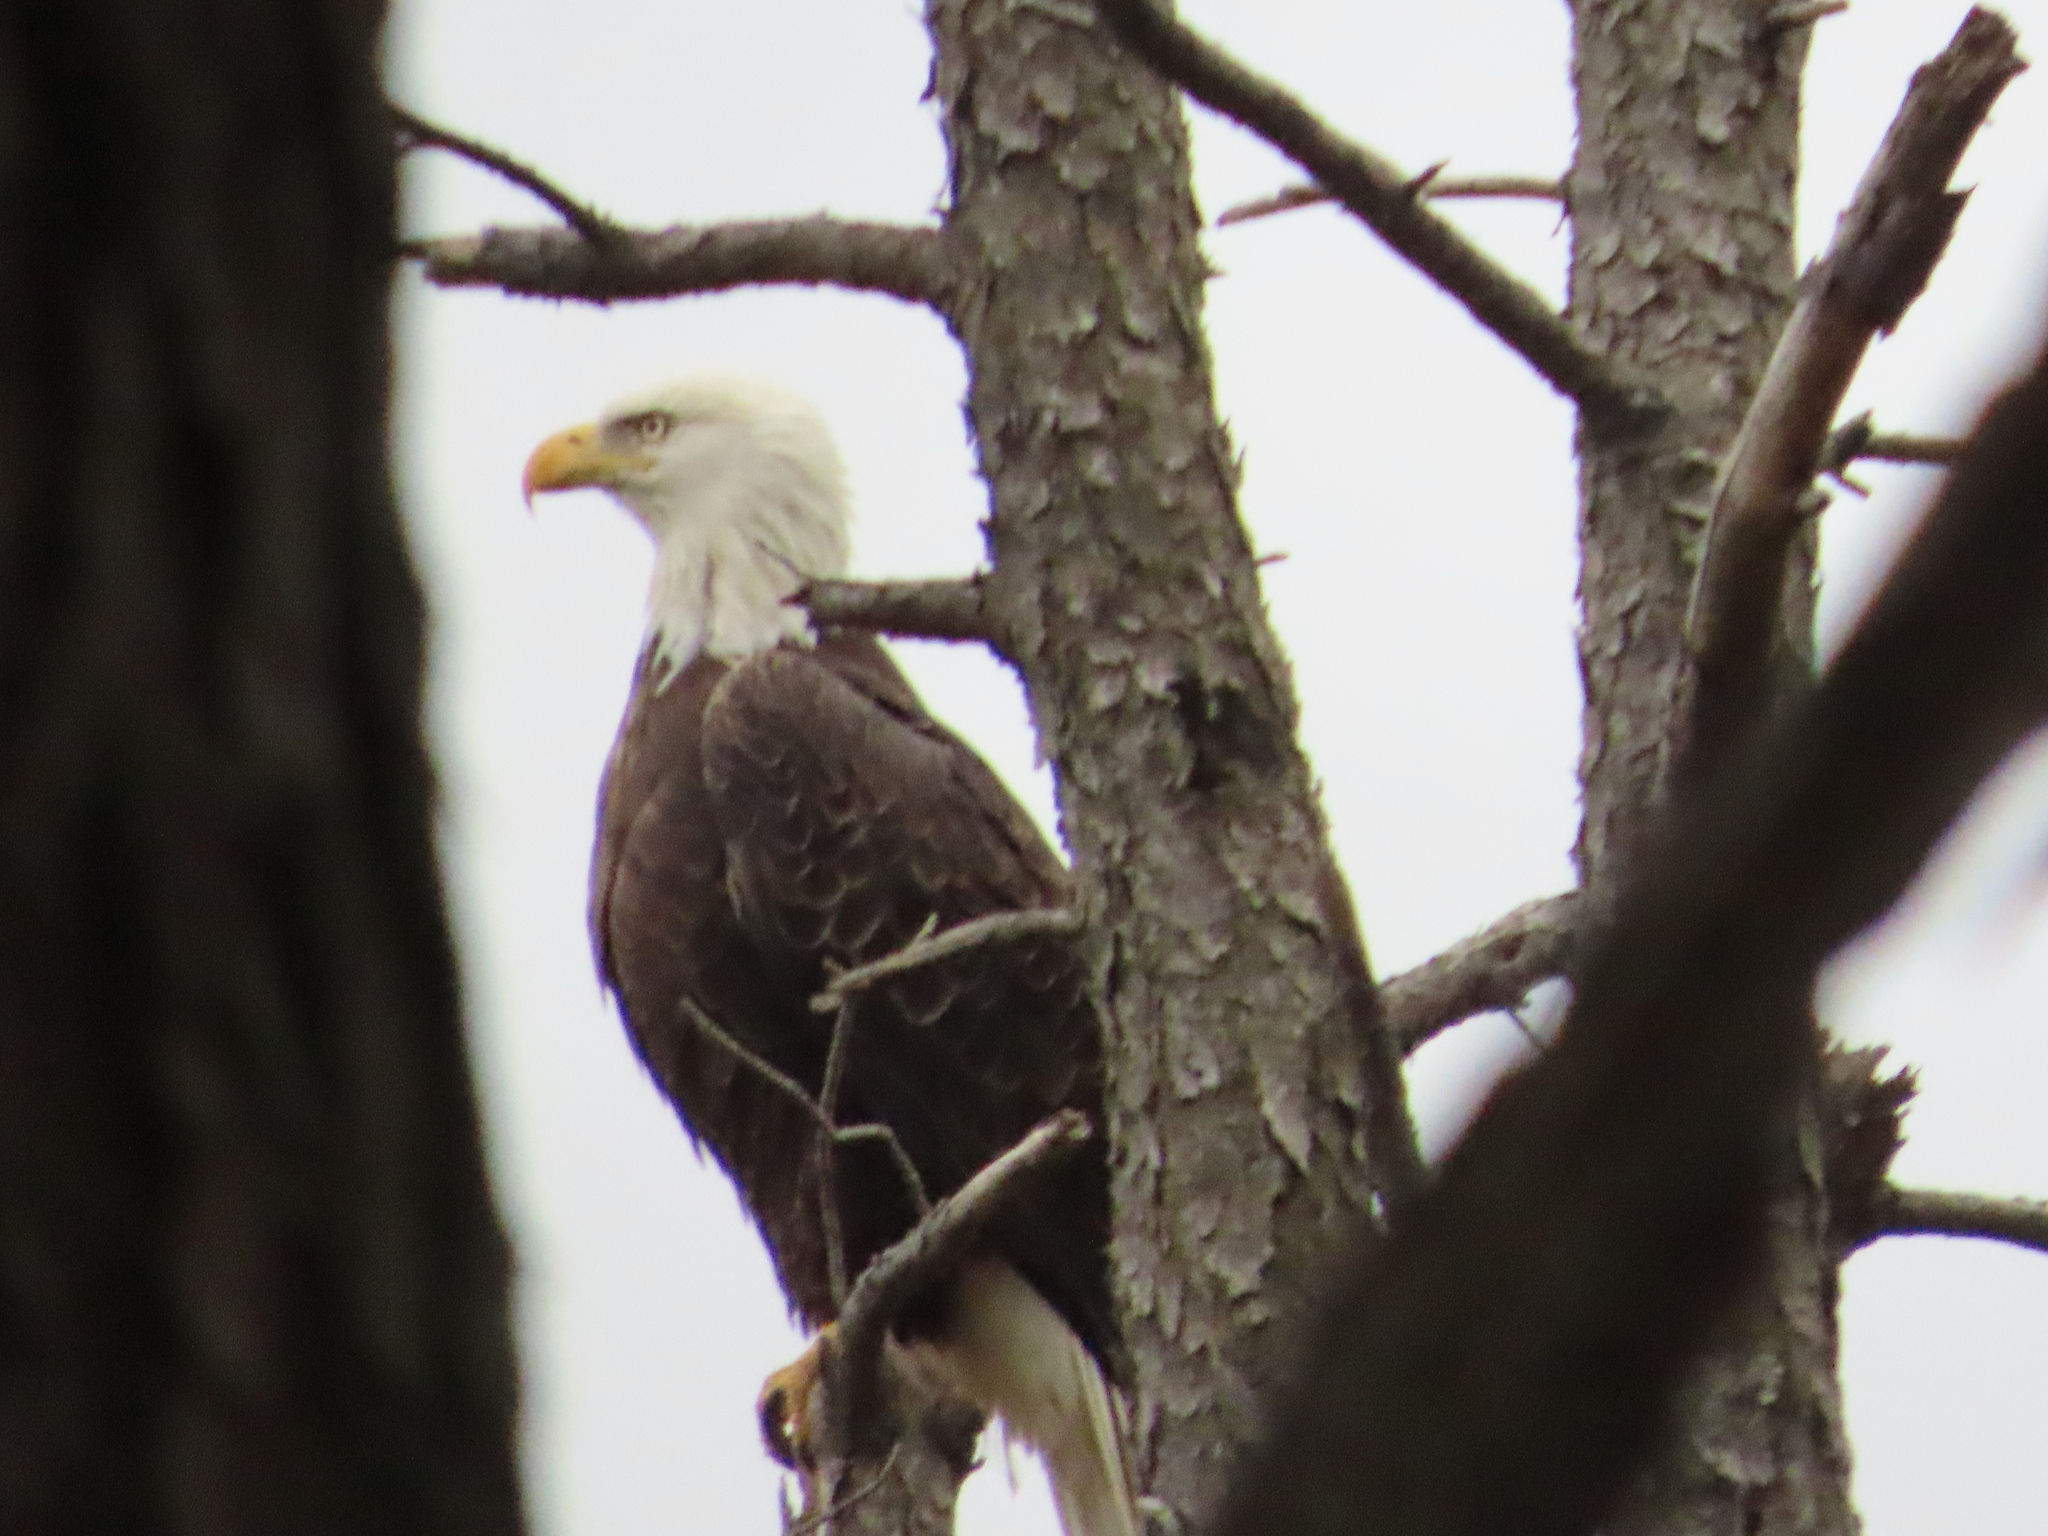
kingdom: Animalia
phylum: Chordata
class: Aves
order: Accipitriformes
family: Accipitridae
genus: Haliaeetus
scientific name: Haliaeetus leucocephalus
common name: Bald eagle
